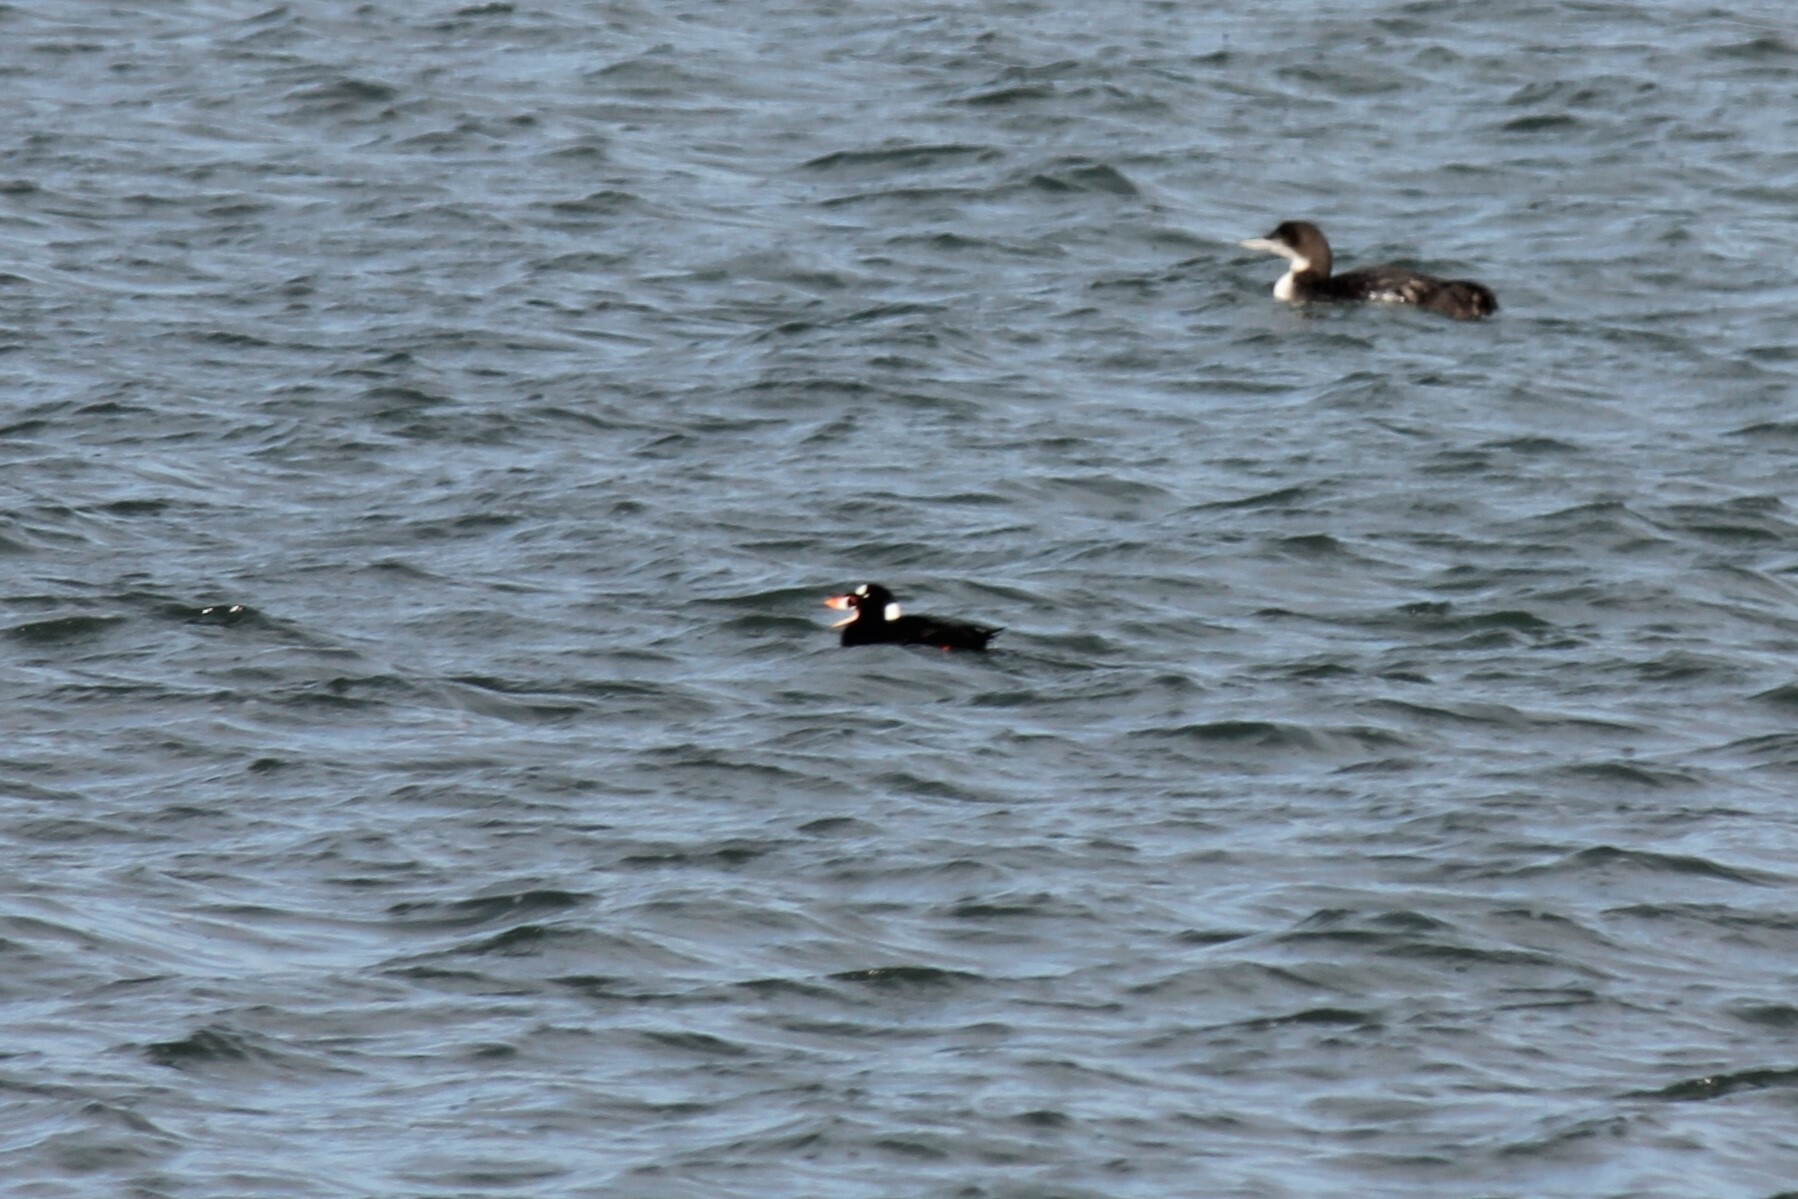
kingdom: Animalia
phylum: Chordata
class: Aves
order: Anseriformes
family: Anatidae
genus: Melanitta
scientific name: Melanitta perspicillata
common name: Surf scoter
